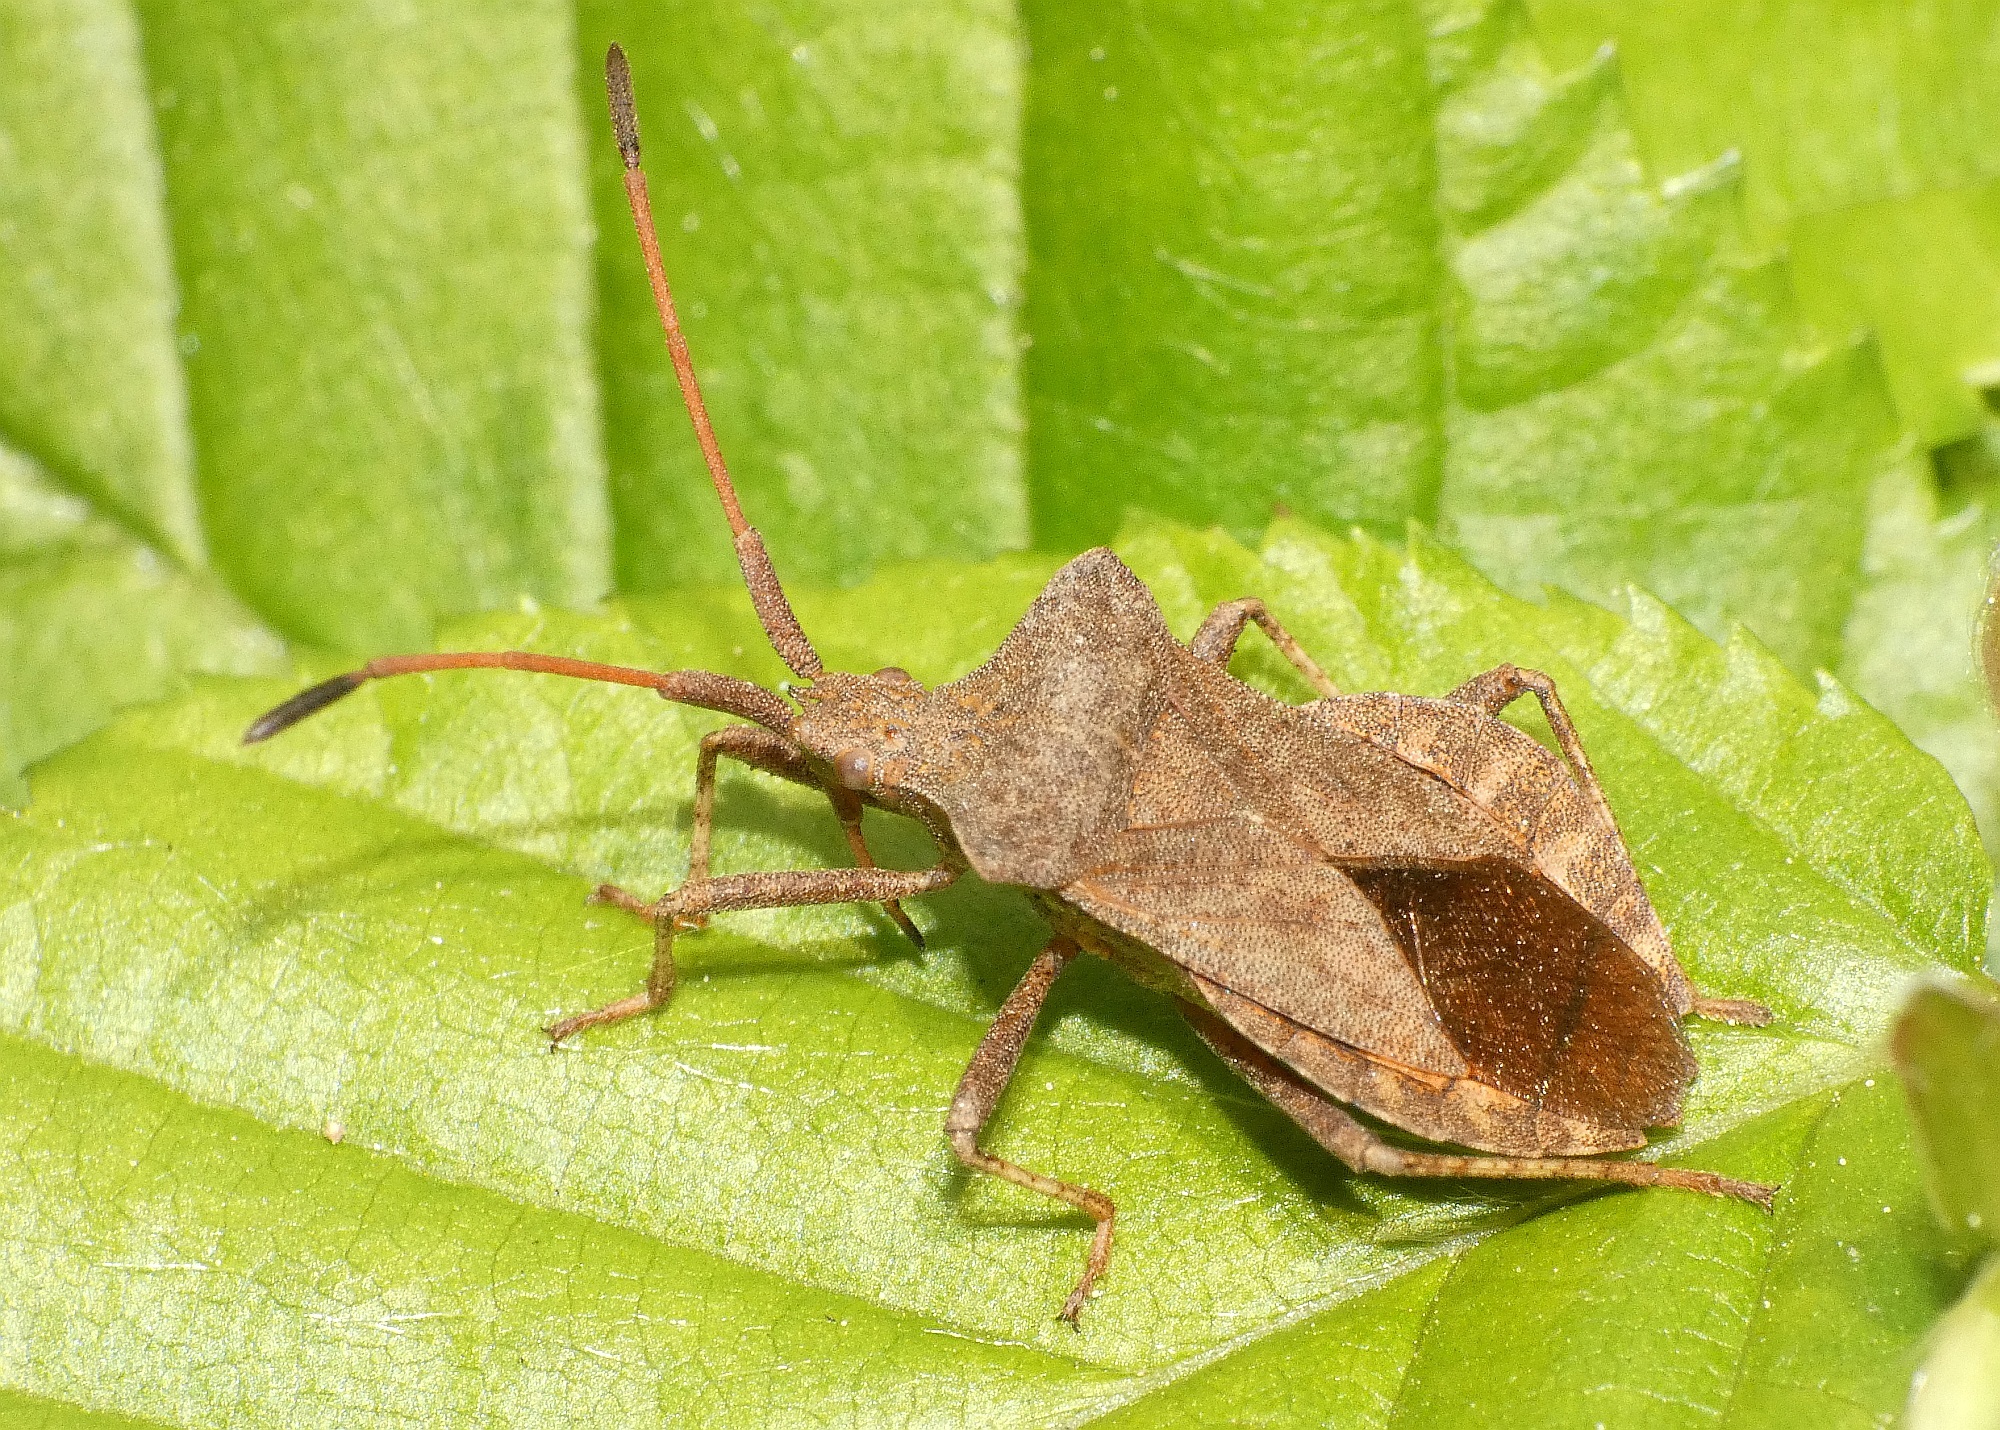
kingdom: Animalia
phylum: Arthropoda
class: Insecta
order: Hemiptera
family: Coreidae
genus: Coreus
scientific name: Coreus marginatus
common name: Dock bug
